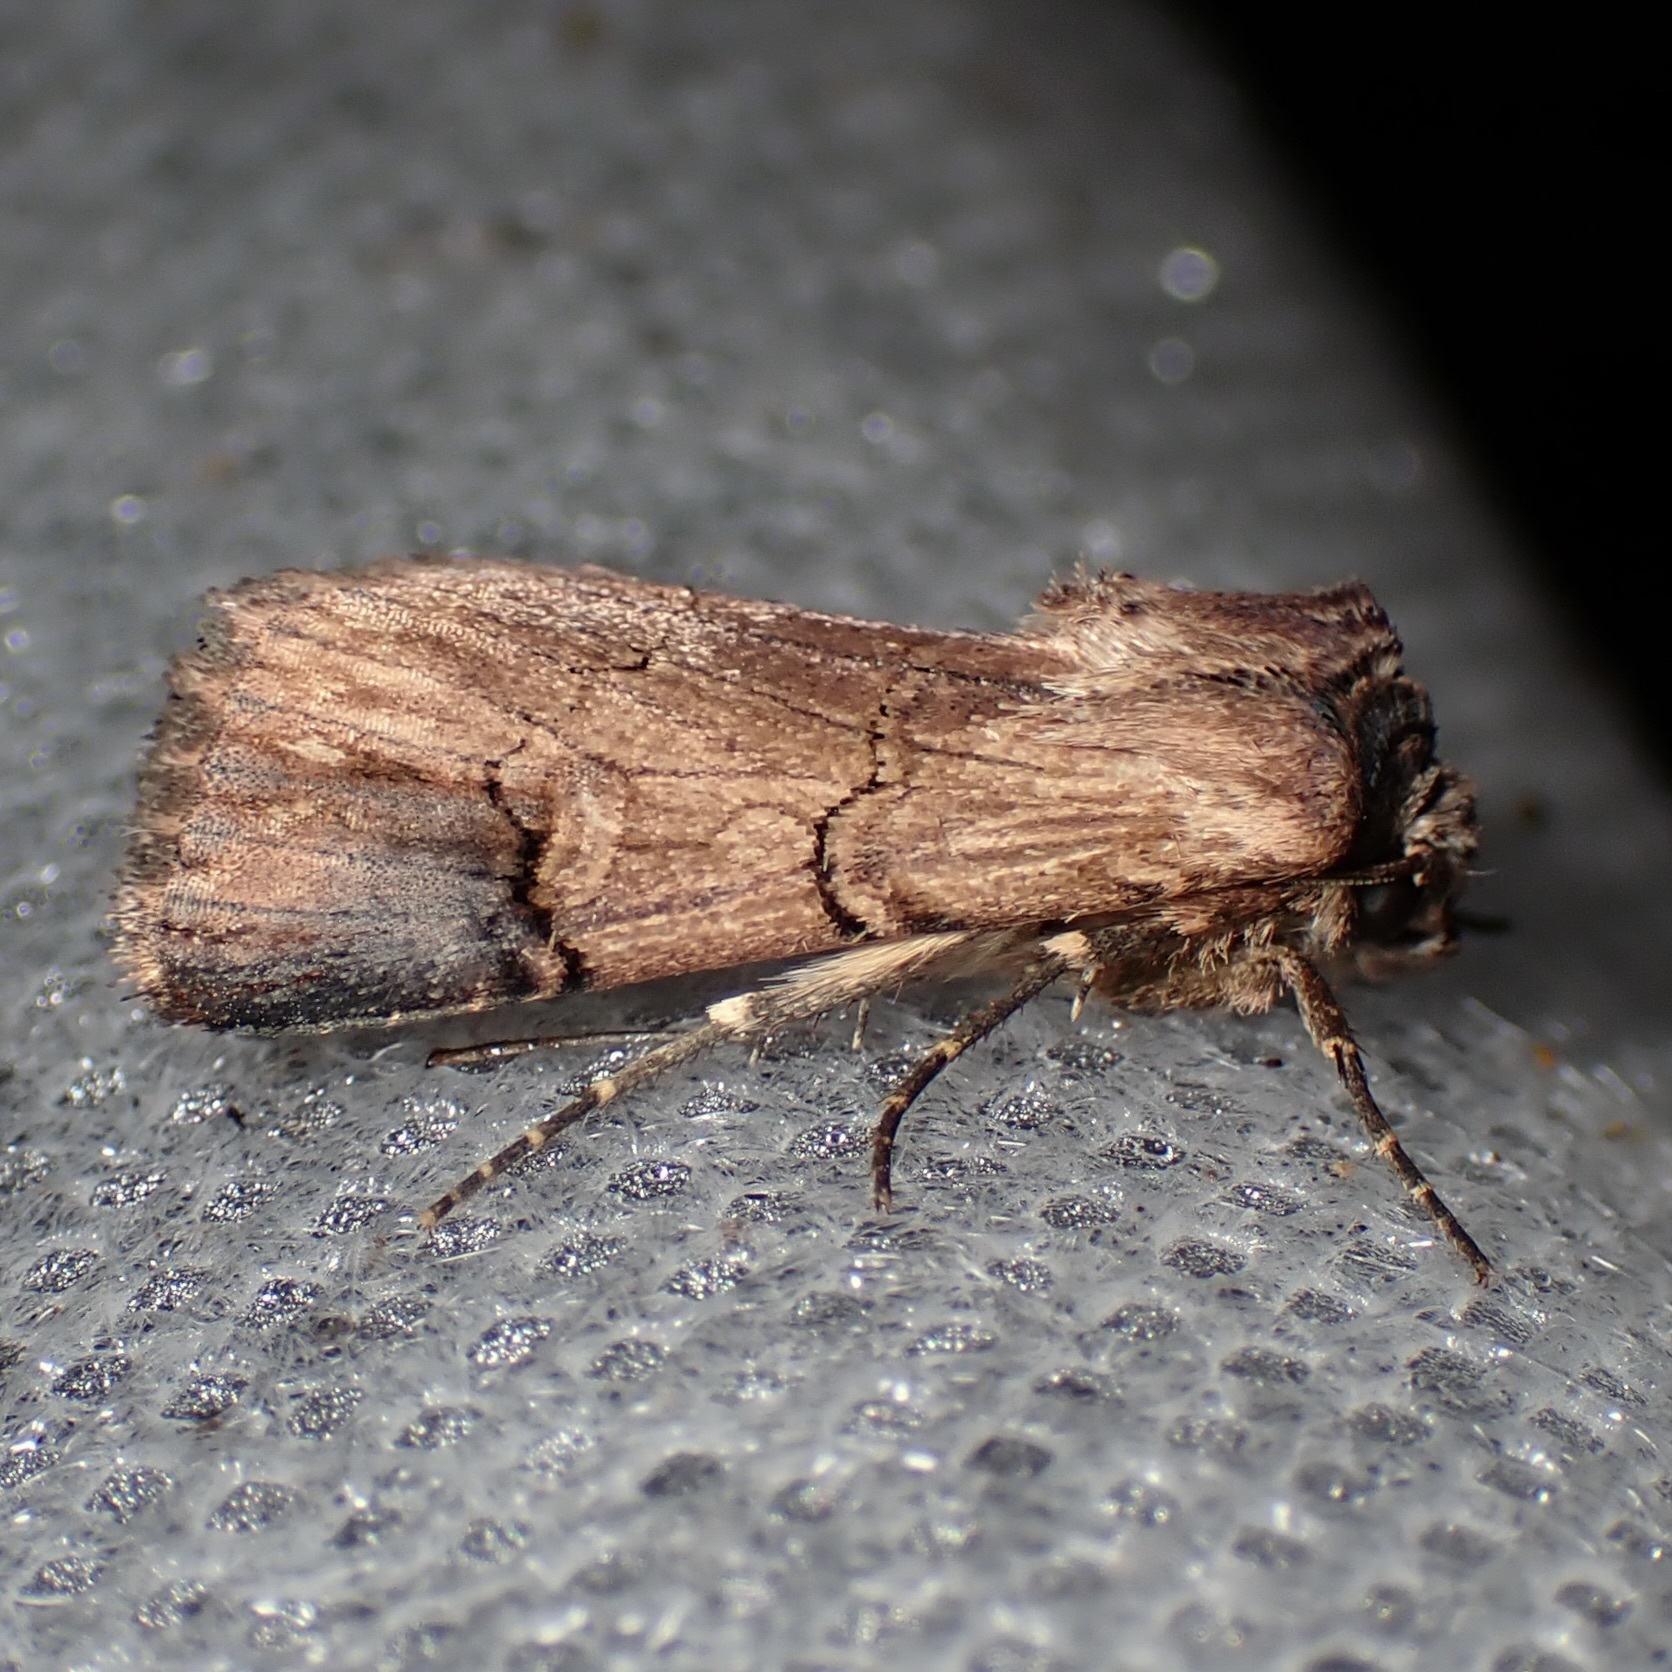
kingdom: Animalia
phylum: Arthropoda
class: Insecta
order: Lepidoptera
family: Noctuidae
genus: Dichagyris
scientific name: Dichagyris grotei
